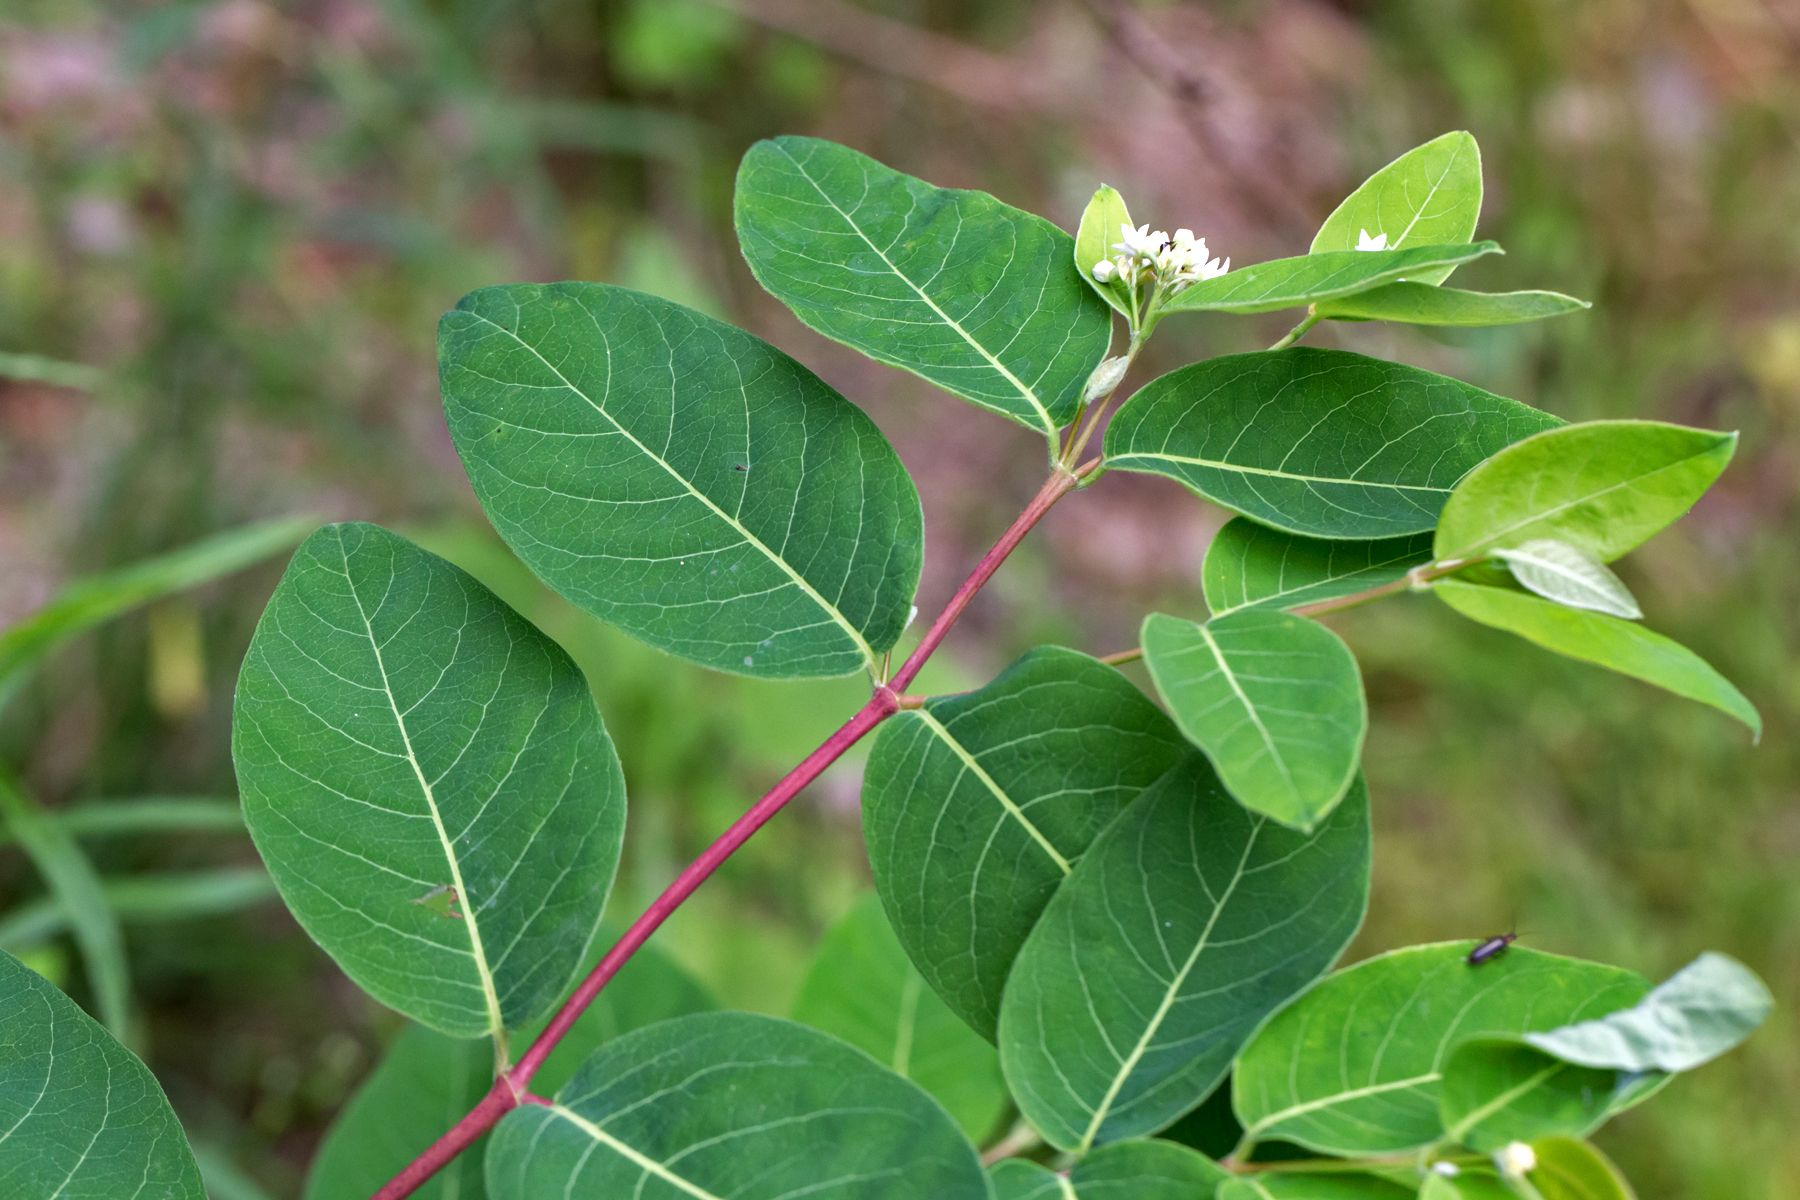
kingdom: Plantae
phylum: Tracheophyta
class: Magnoliopsida
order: Gentianales
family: Apocynaceae
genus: Apocynum
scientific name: Apocynum androsaemifolium
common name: Spreading dogbane
